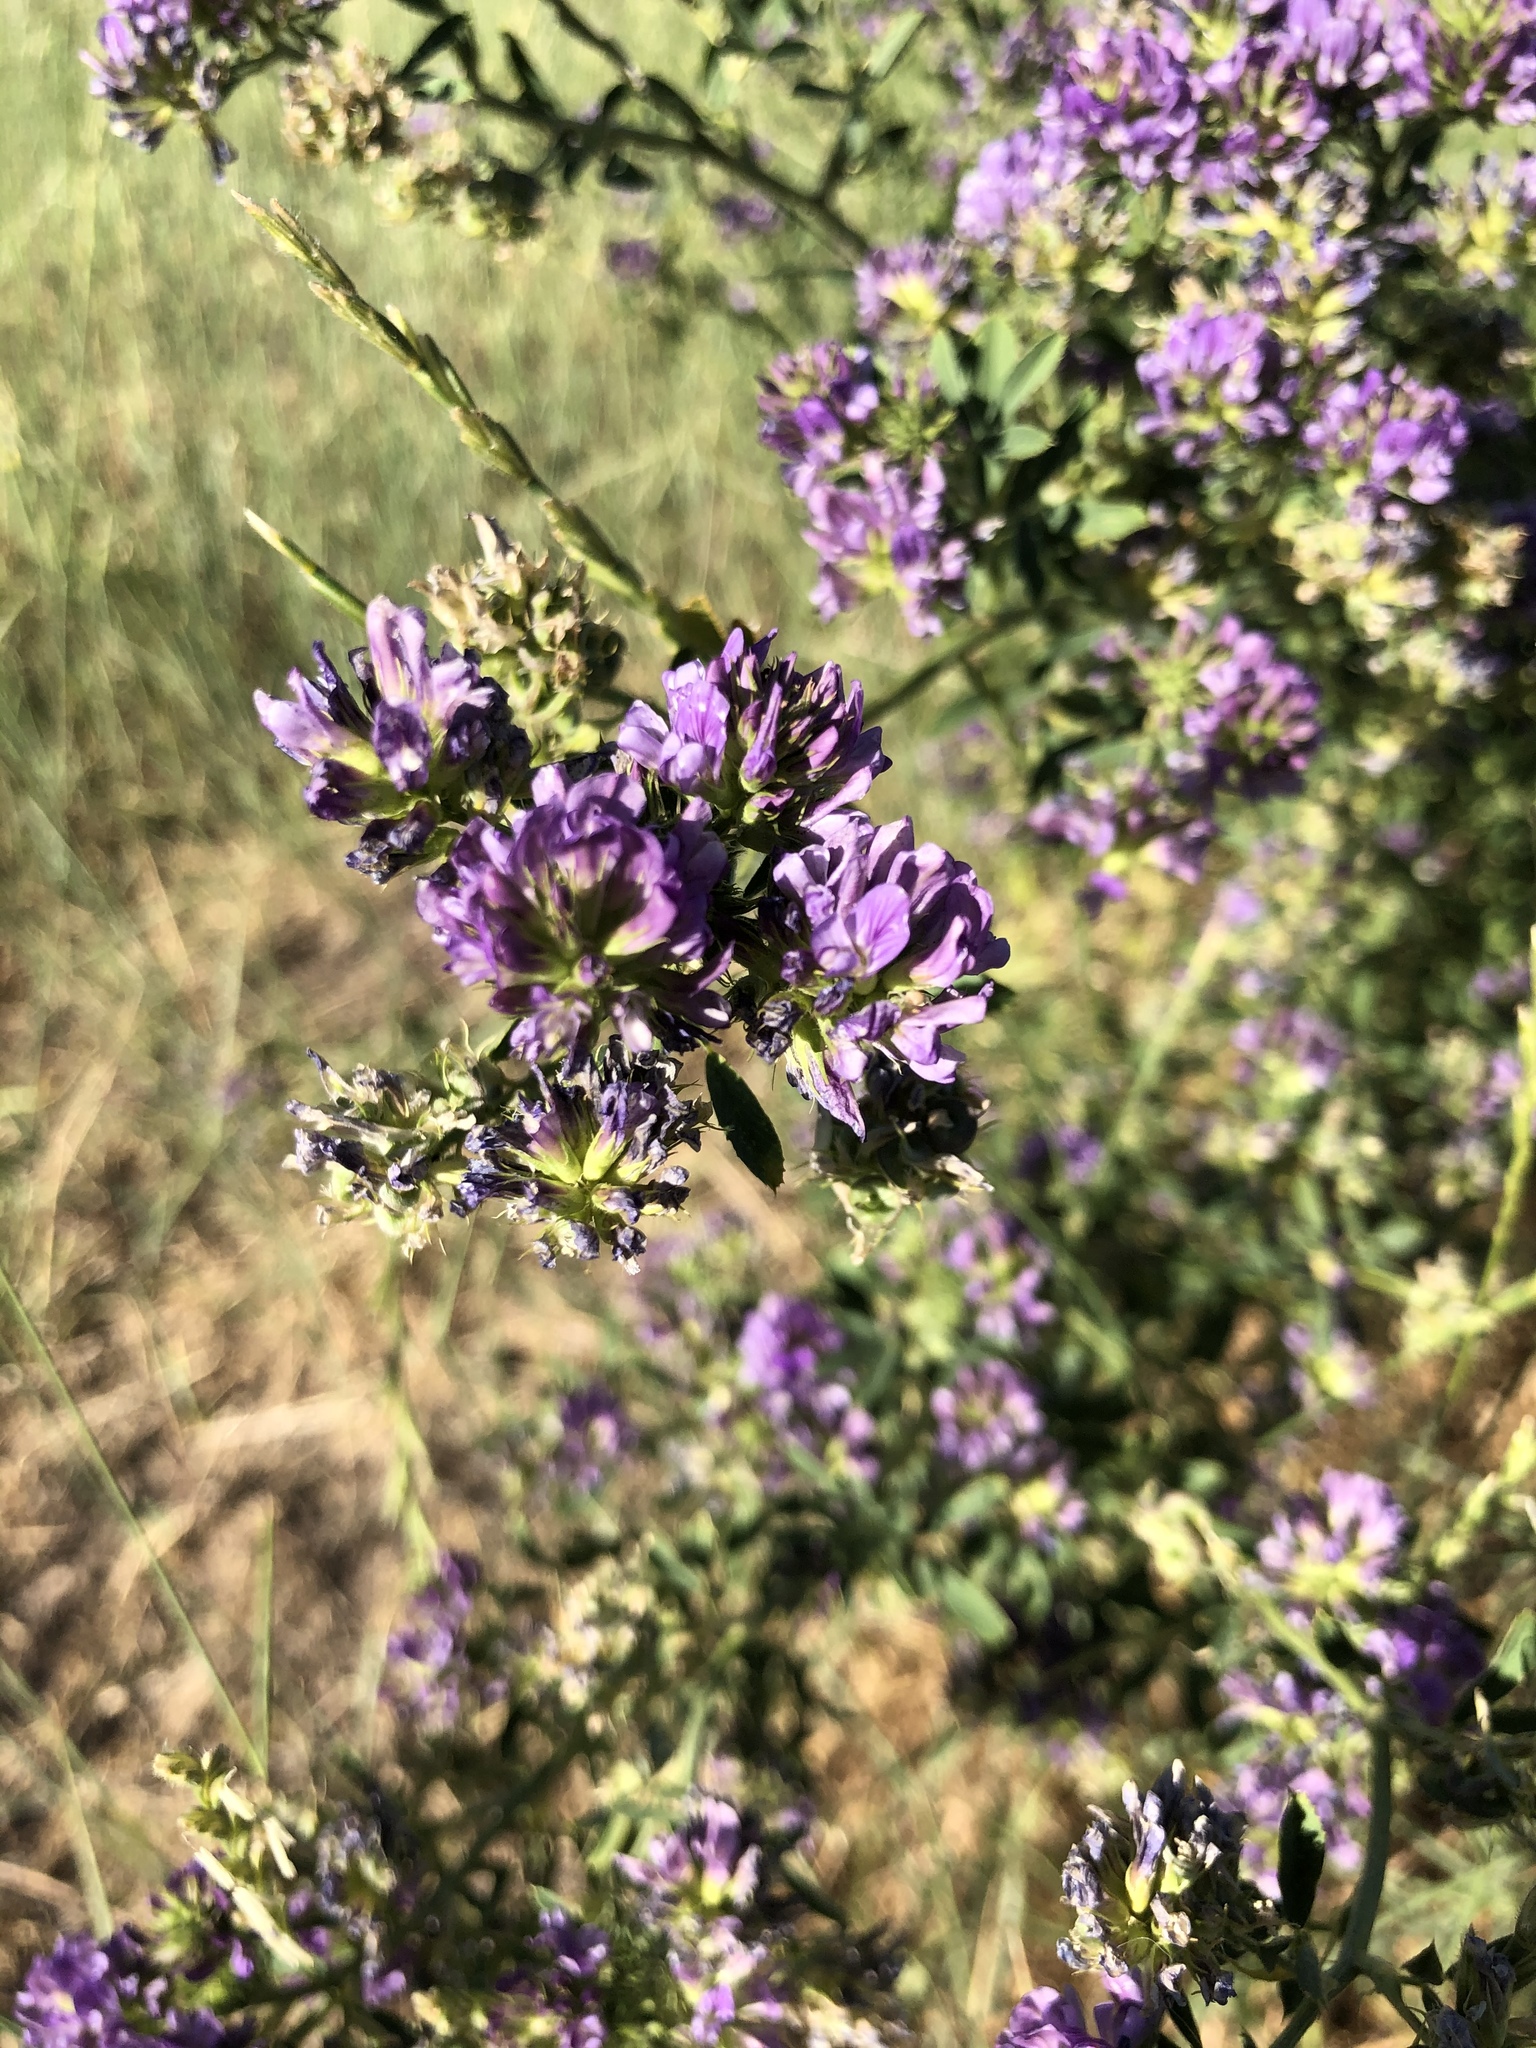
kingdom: Plantae
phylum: Tracheophyta
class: Magnoliopsida
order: Fabales
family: Fabaceae
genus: Medicago
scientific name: Medicago sativa
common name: Alfalfa
